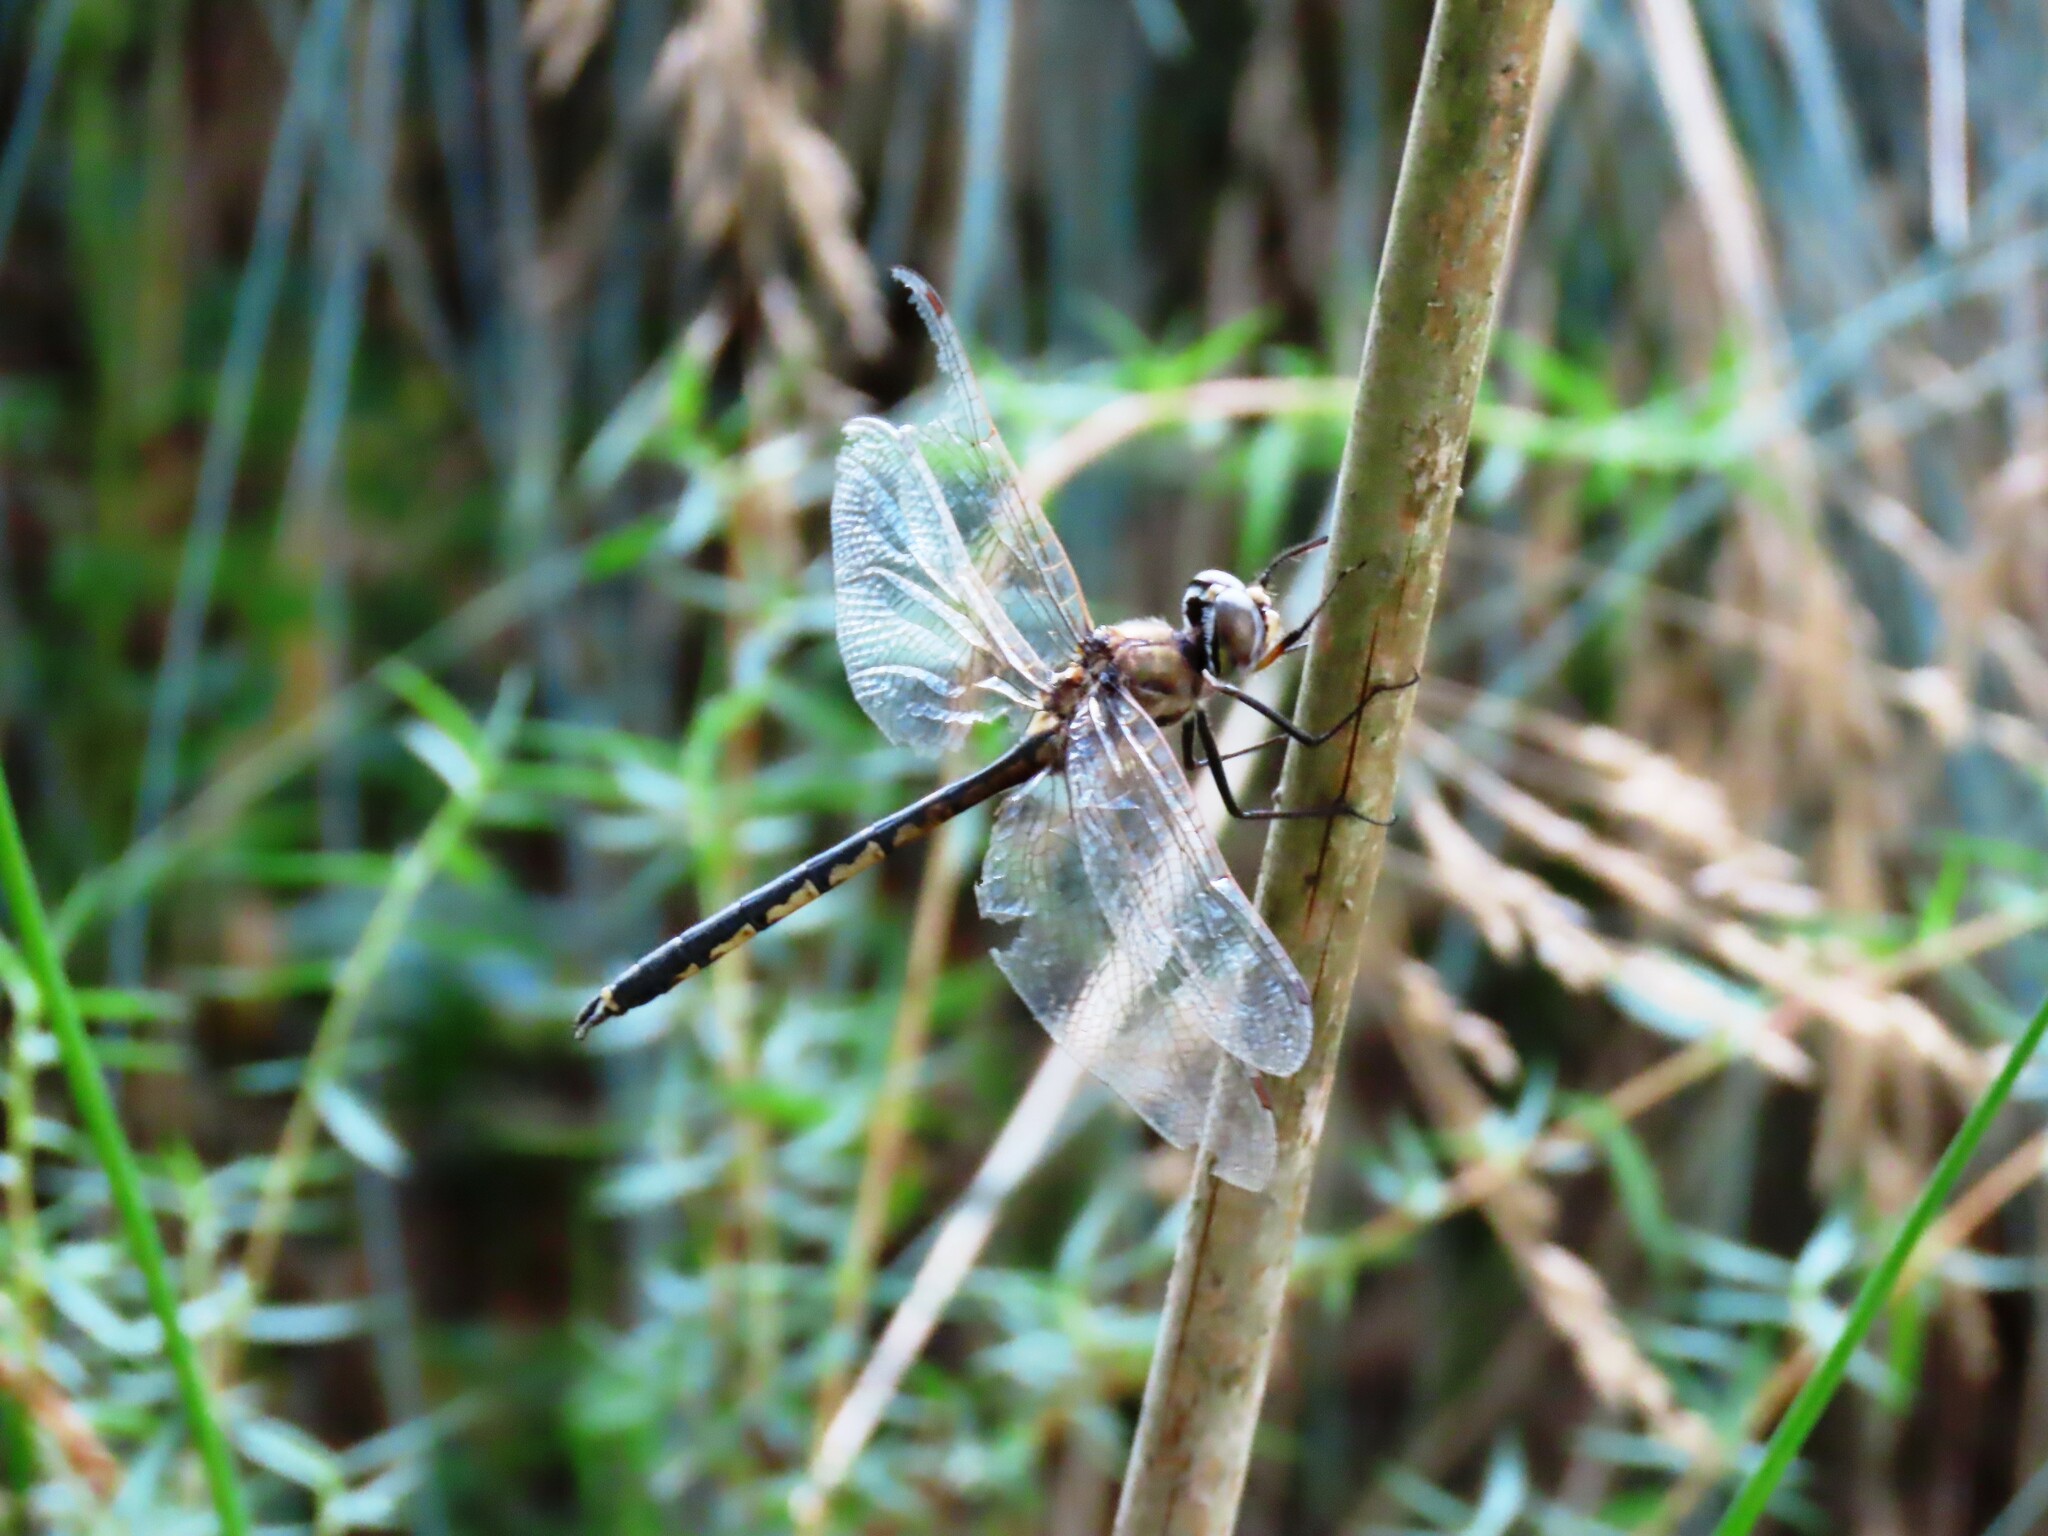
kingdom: Animalia
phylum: Arthropoda
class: Insecta
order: Odonata
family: Corduliidae
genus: Hemicordulia
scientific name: Hemicordulia tau
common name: Tau emerald
